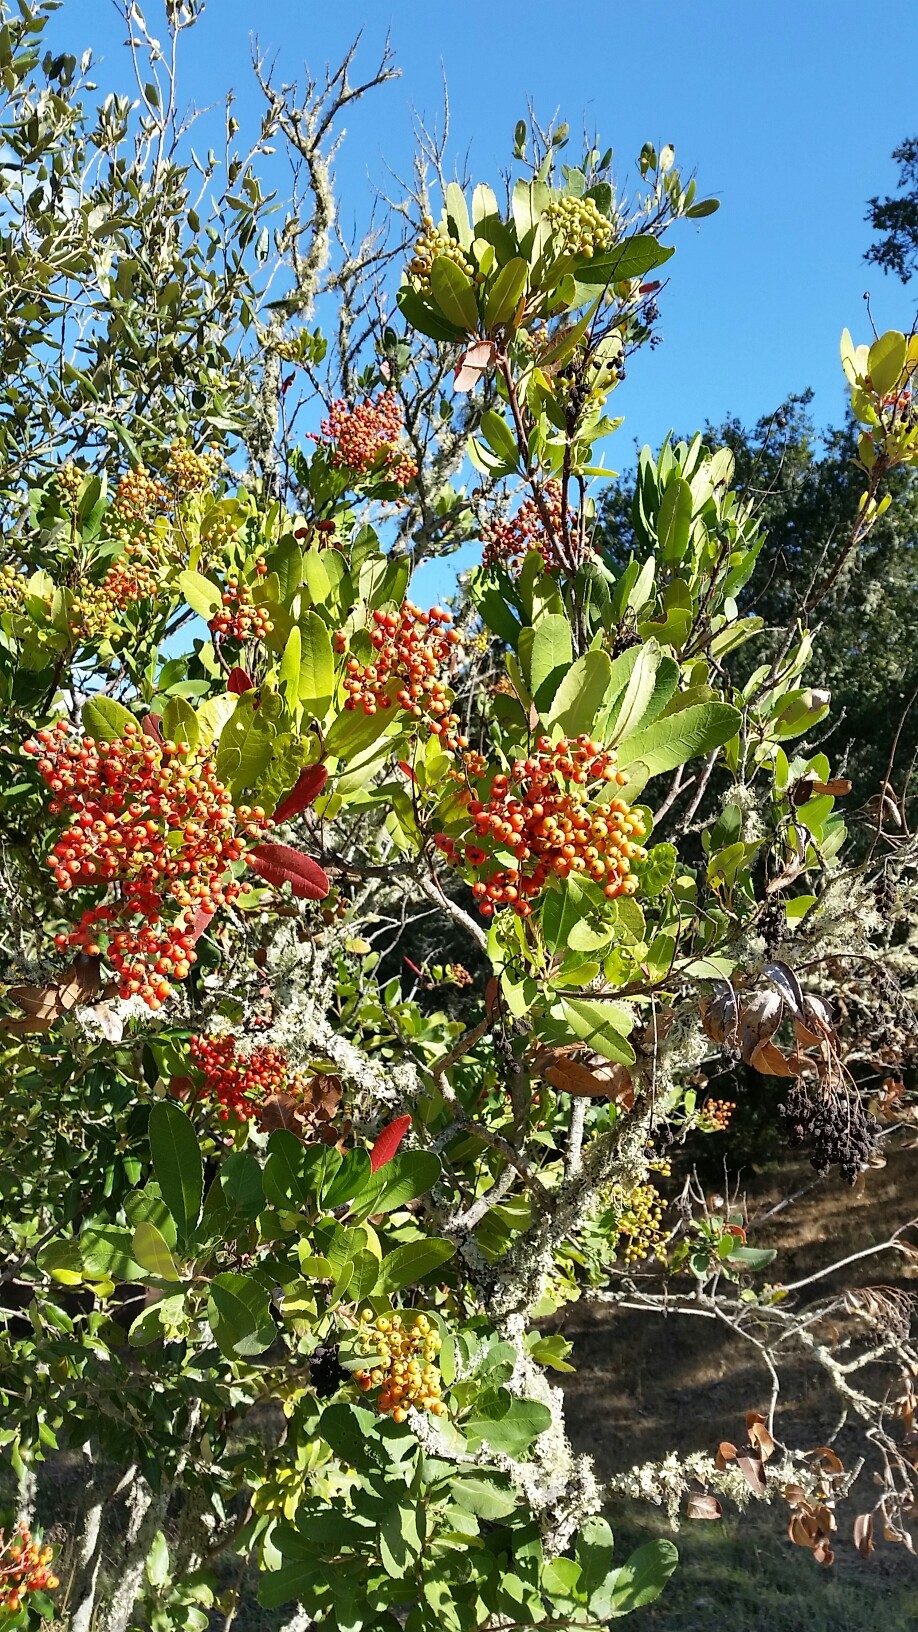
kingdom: Plantae
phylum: Tracheophyta
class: Magnoliopsida
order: Rosales
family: Rosaceae
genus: Heteromeles
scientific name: Heteromeles arbutifolia
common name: California-holly
